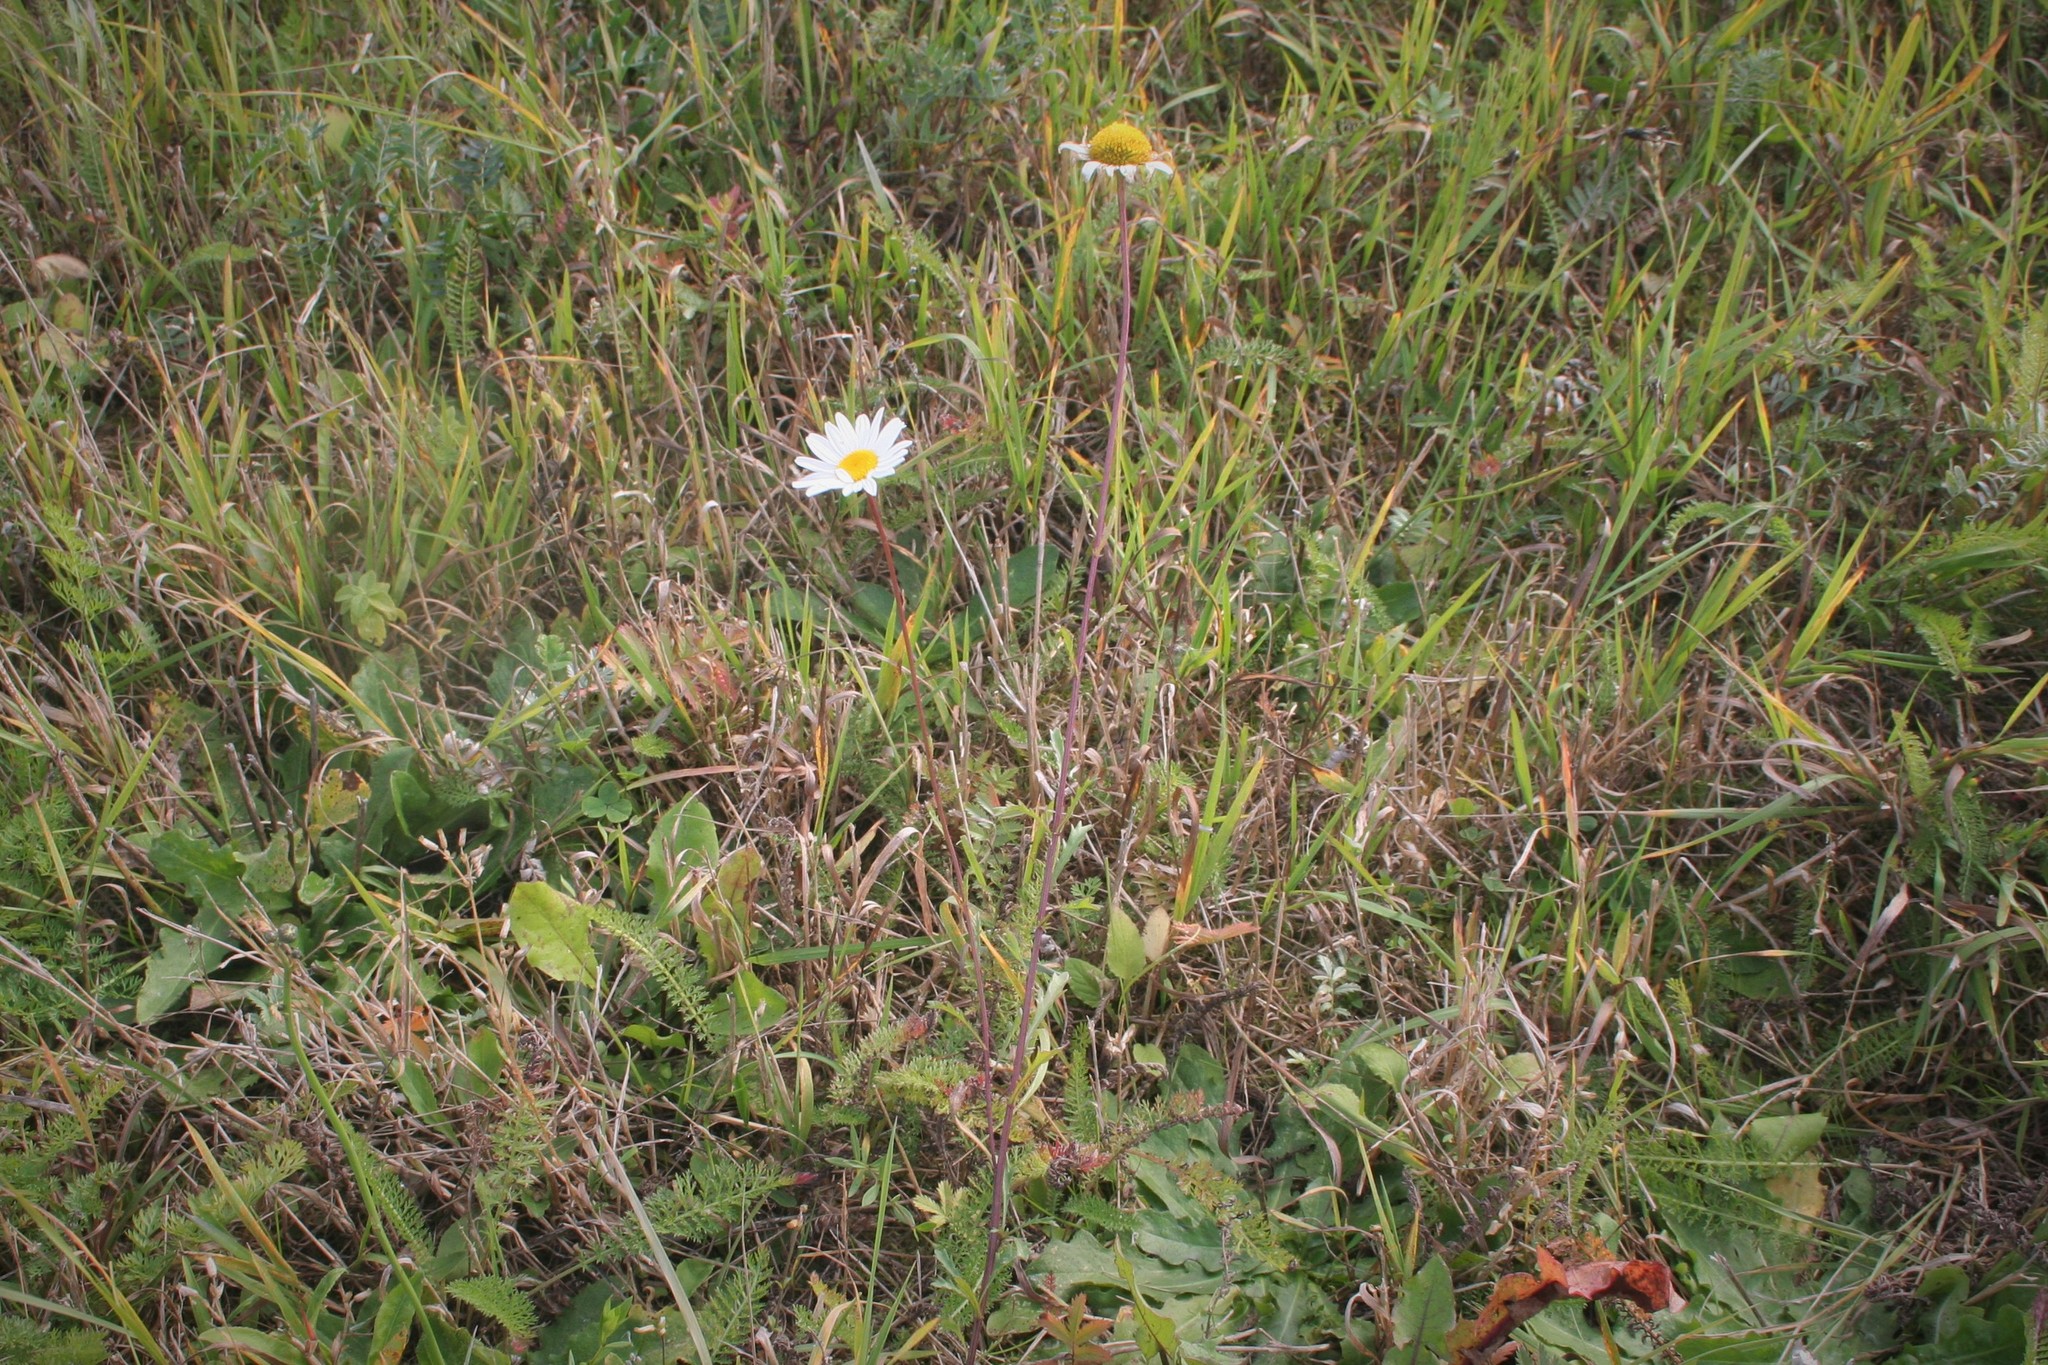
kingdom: Plantae
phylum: Tracheophyta
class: Magnoliopsida
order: Asterales
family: Asteraceae
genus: Leucanthemum
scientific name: Leucanthemum vulgare
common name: Oxeye daisy
